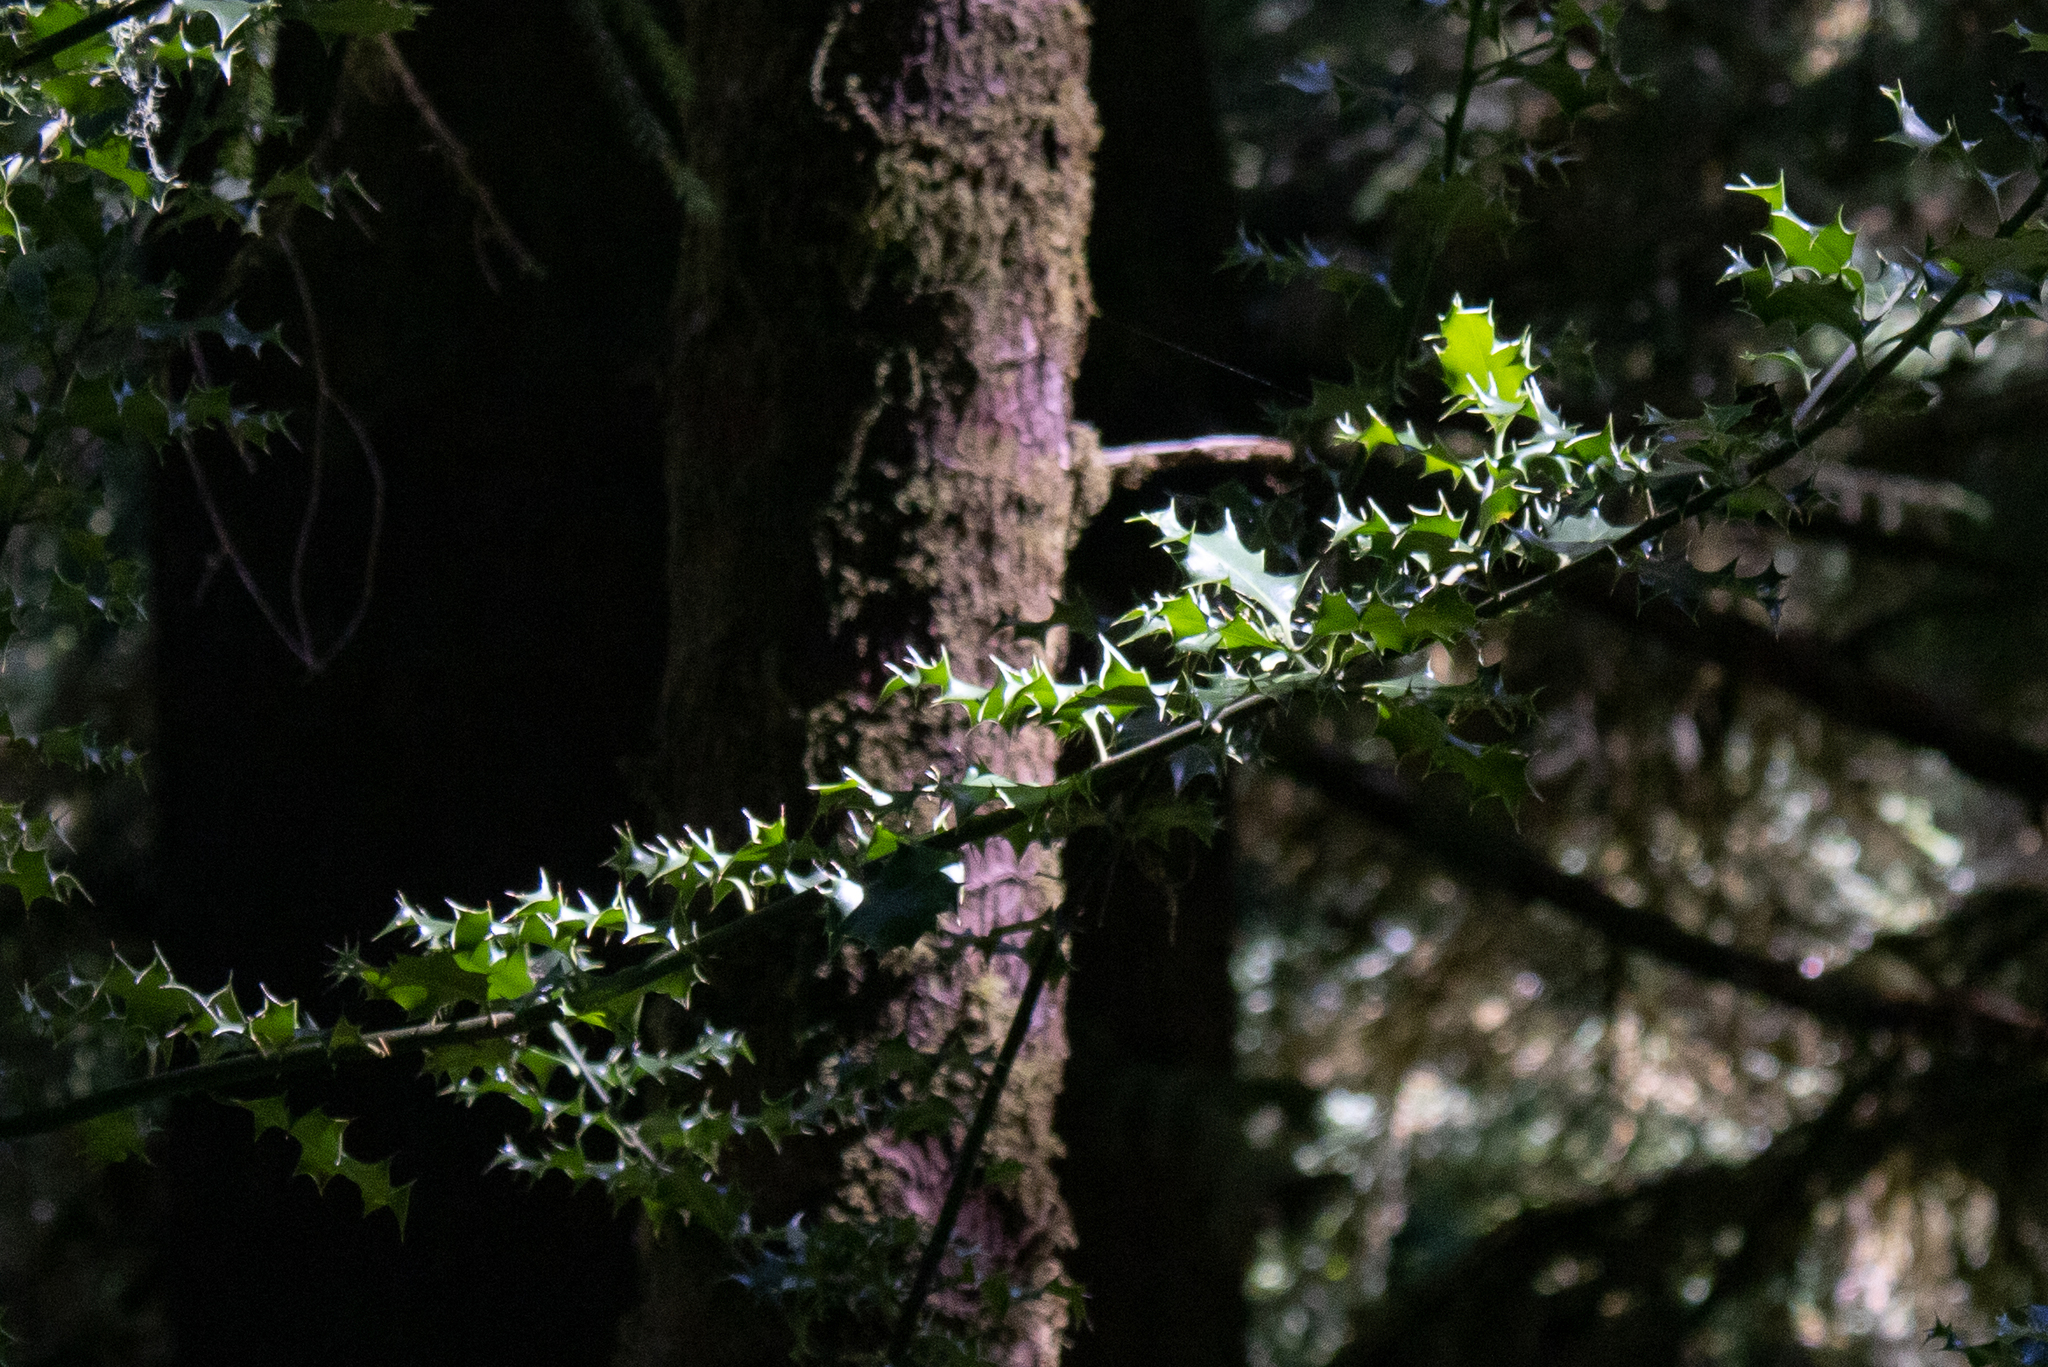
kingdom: Plantae
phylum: Tracheophyta
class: Magnoliopsida
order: Aquifoliales
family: Aquifoliaceae
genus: Ilex
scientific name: Ilex aquifolium
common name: English holly
